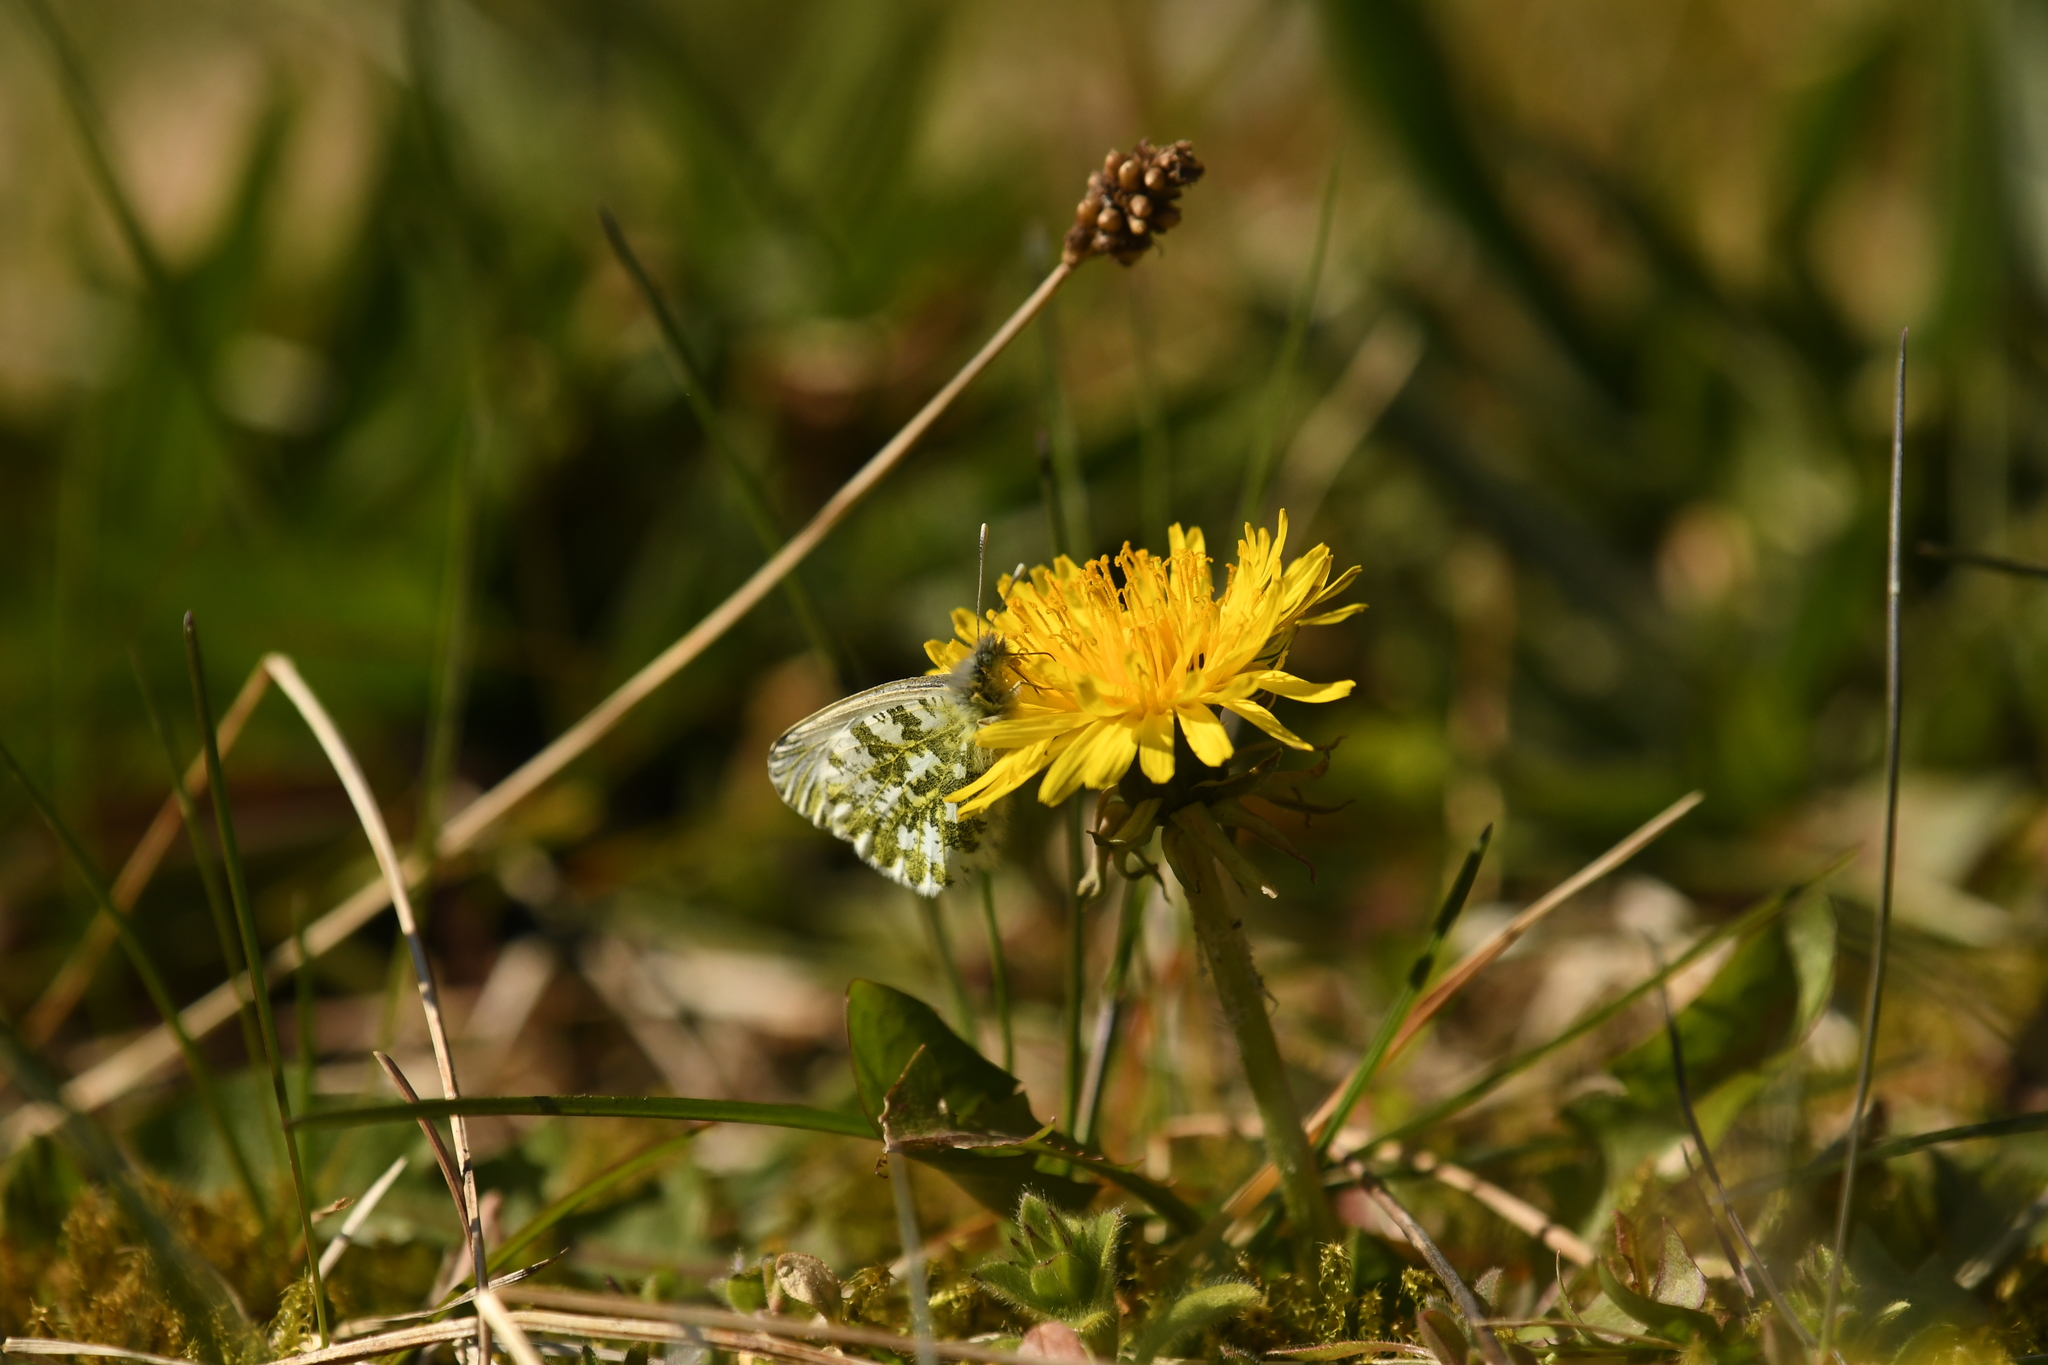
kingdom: Animalia
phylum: Arthropoda
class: Insecta
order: Lepidoptera
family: Pieridae
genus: Anthocharis
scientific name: Anthocharis cardamines
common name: Orange-tip
